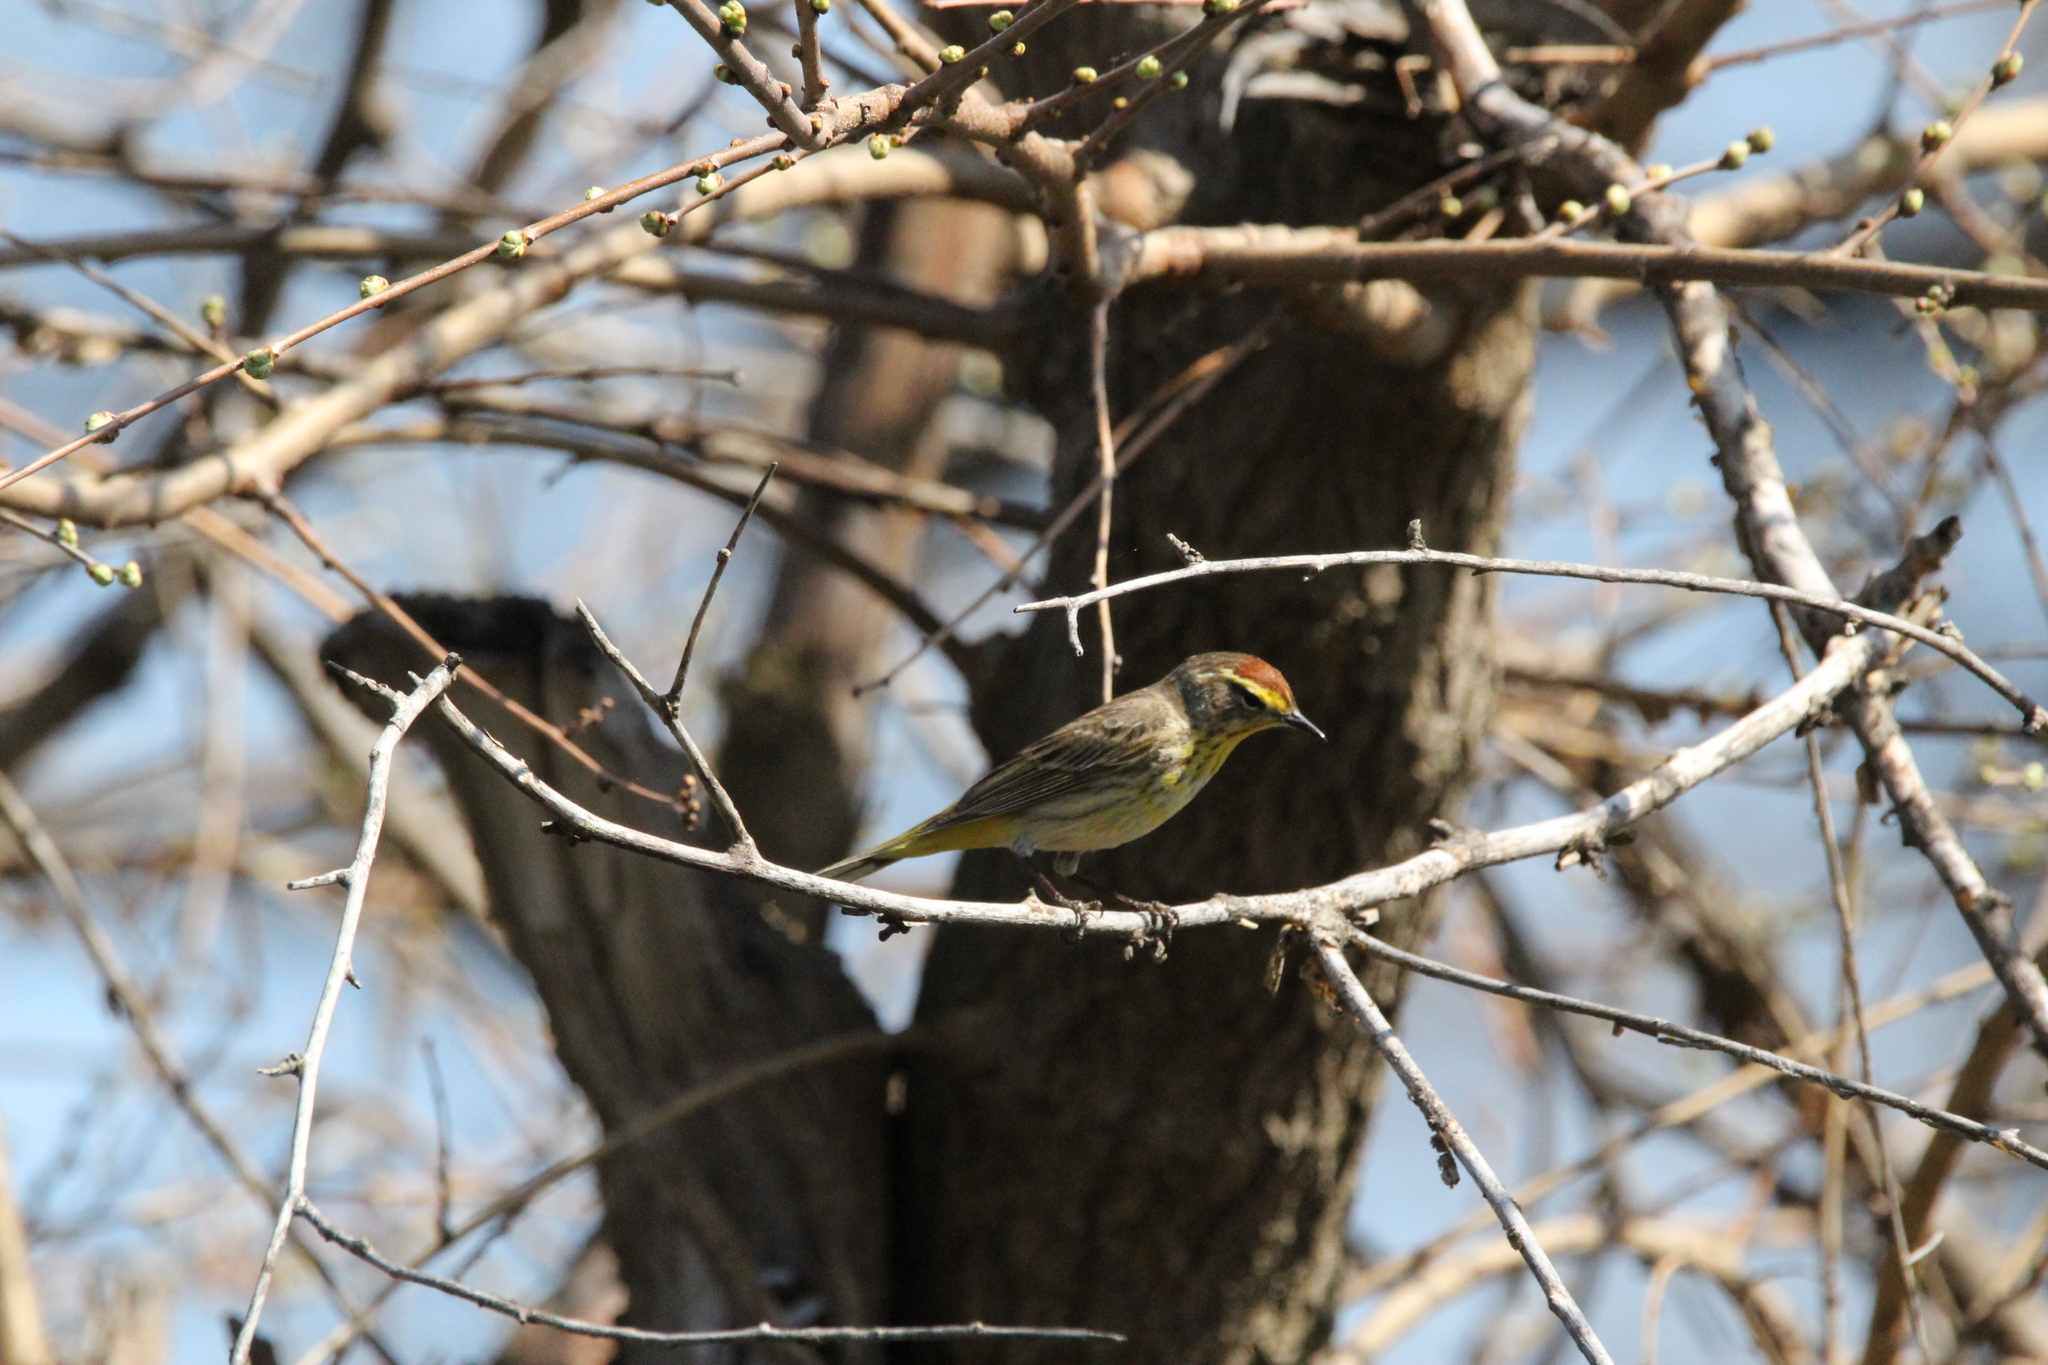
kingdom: Animalia
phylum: Chordata
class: Aves
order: Passeriformes
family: Parulidae
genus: Setophaga
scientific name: Setophaga palmarum
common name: Palm warbler
